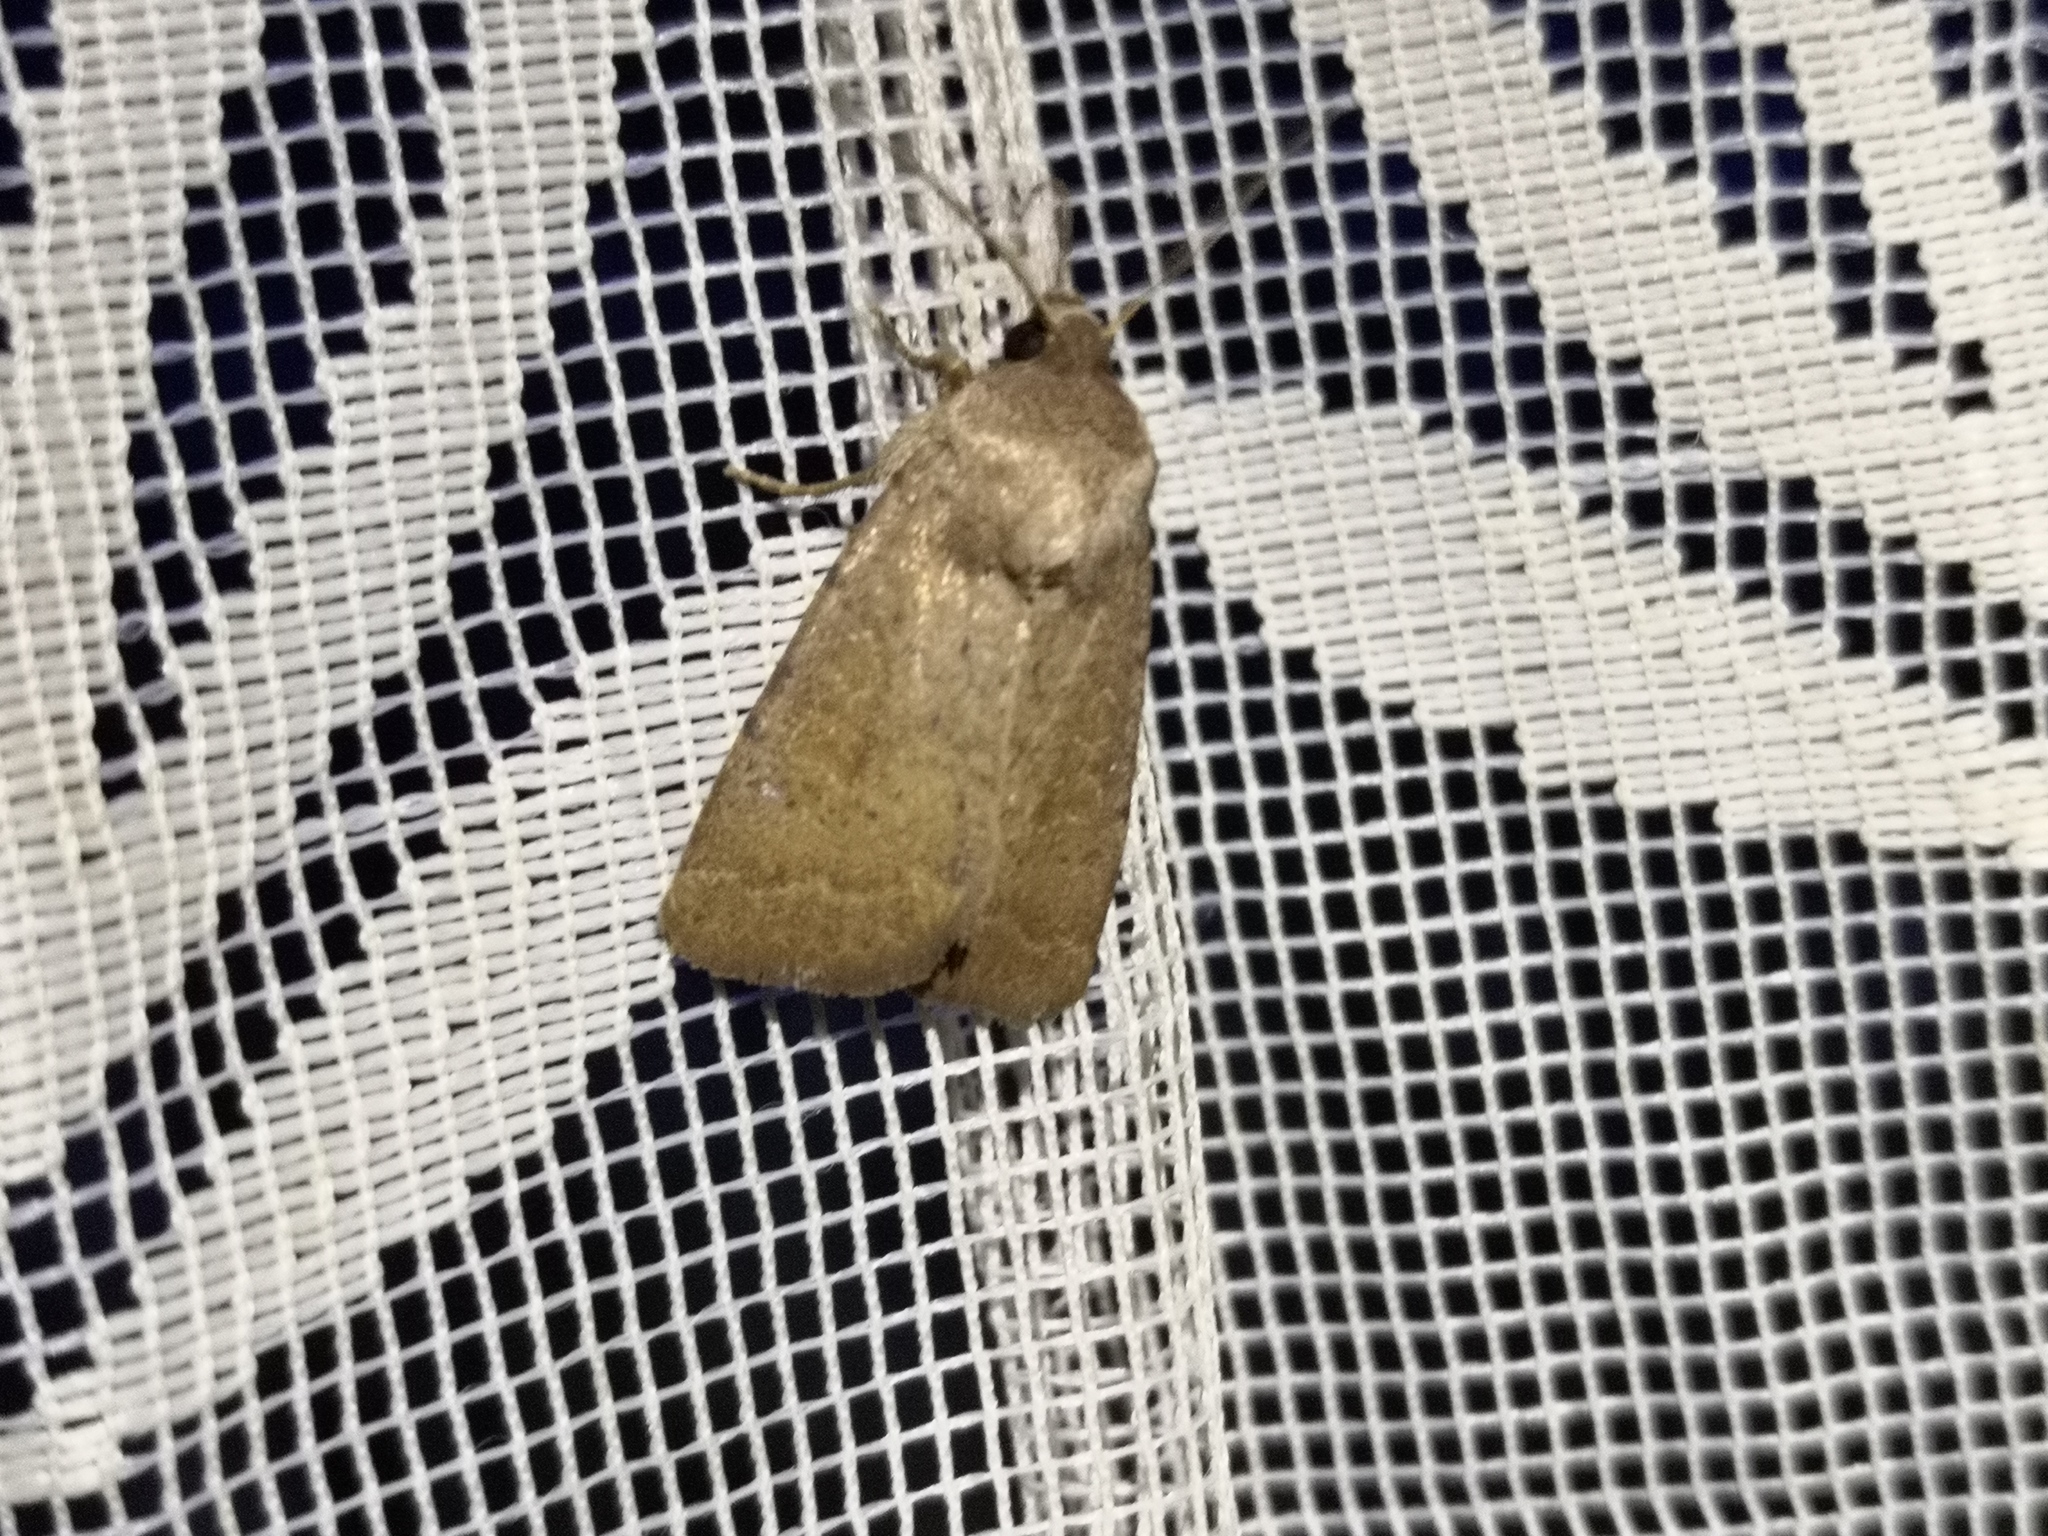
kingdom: Animalia
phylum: Arthropoda
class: Insecta
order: Lepidoptera
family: Noctuidae
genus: Hoplodrina
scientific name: Hoplodrina blanda
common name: Rustic
